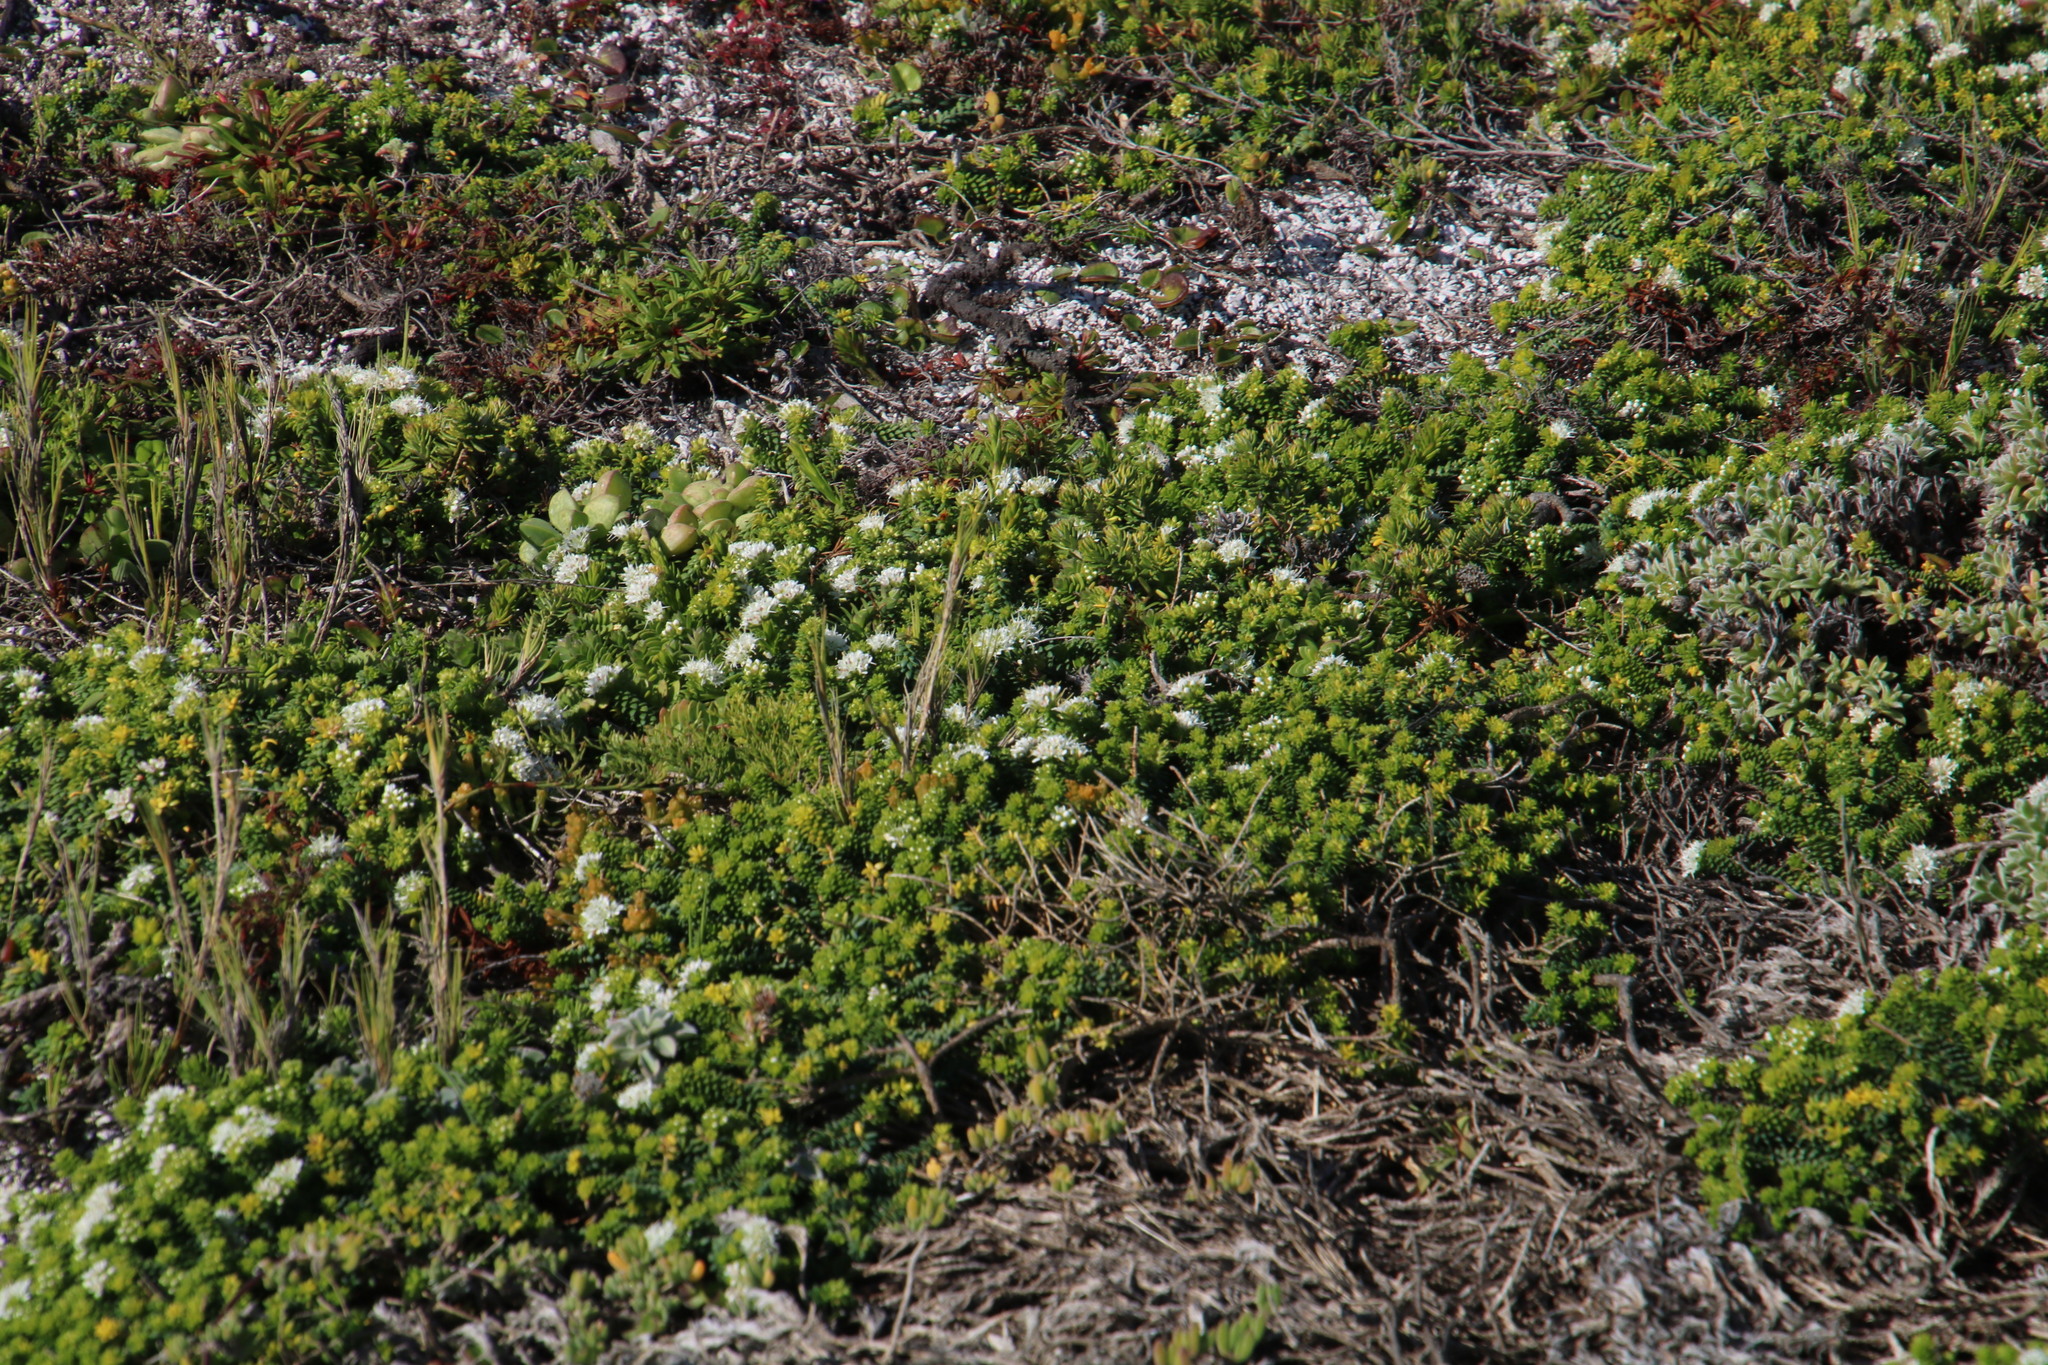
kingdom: Plantae
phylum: Tracheophyta
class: Magnoliopsida
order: Sapindales
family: Rutaceae
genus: Agathosma
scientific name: Agathosma apiculata
